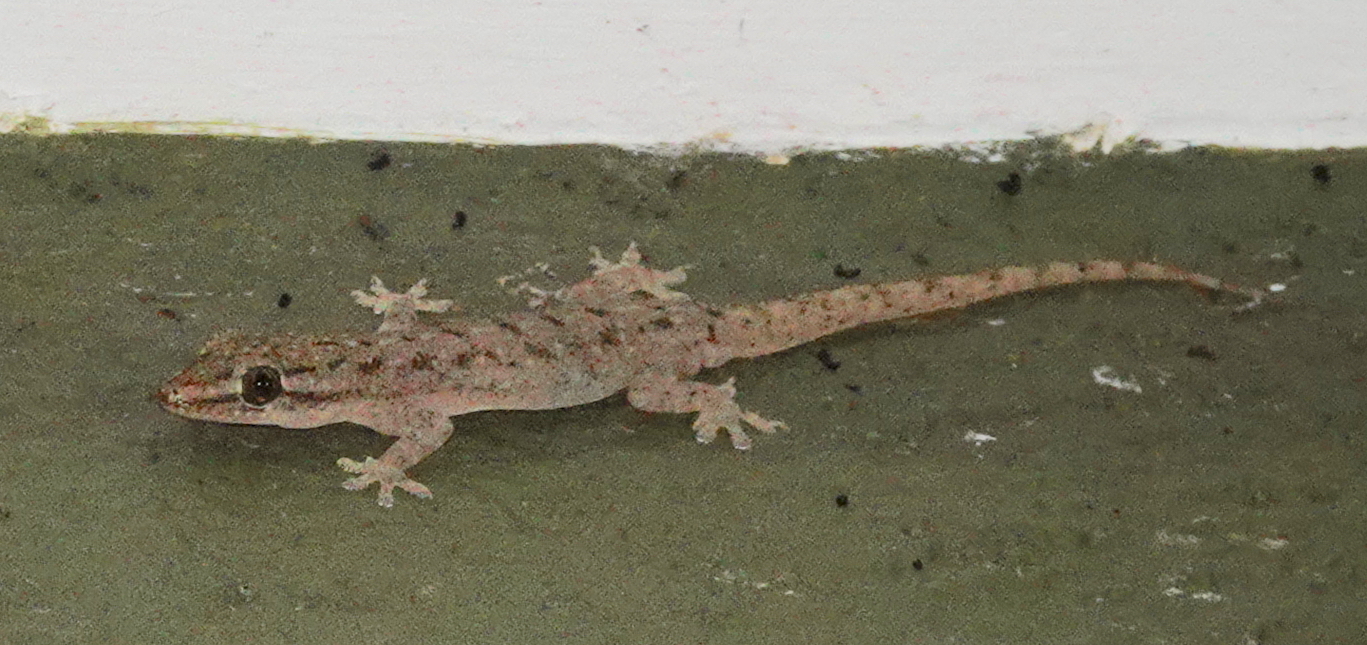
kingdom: Animalia
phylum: Chordata
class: Squamata
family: Gekkonidae
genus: Hemidactylus
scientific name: Hemidactylus parvimaculatus
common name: Spotted house gecko
